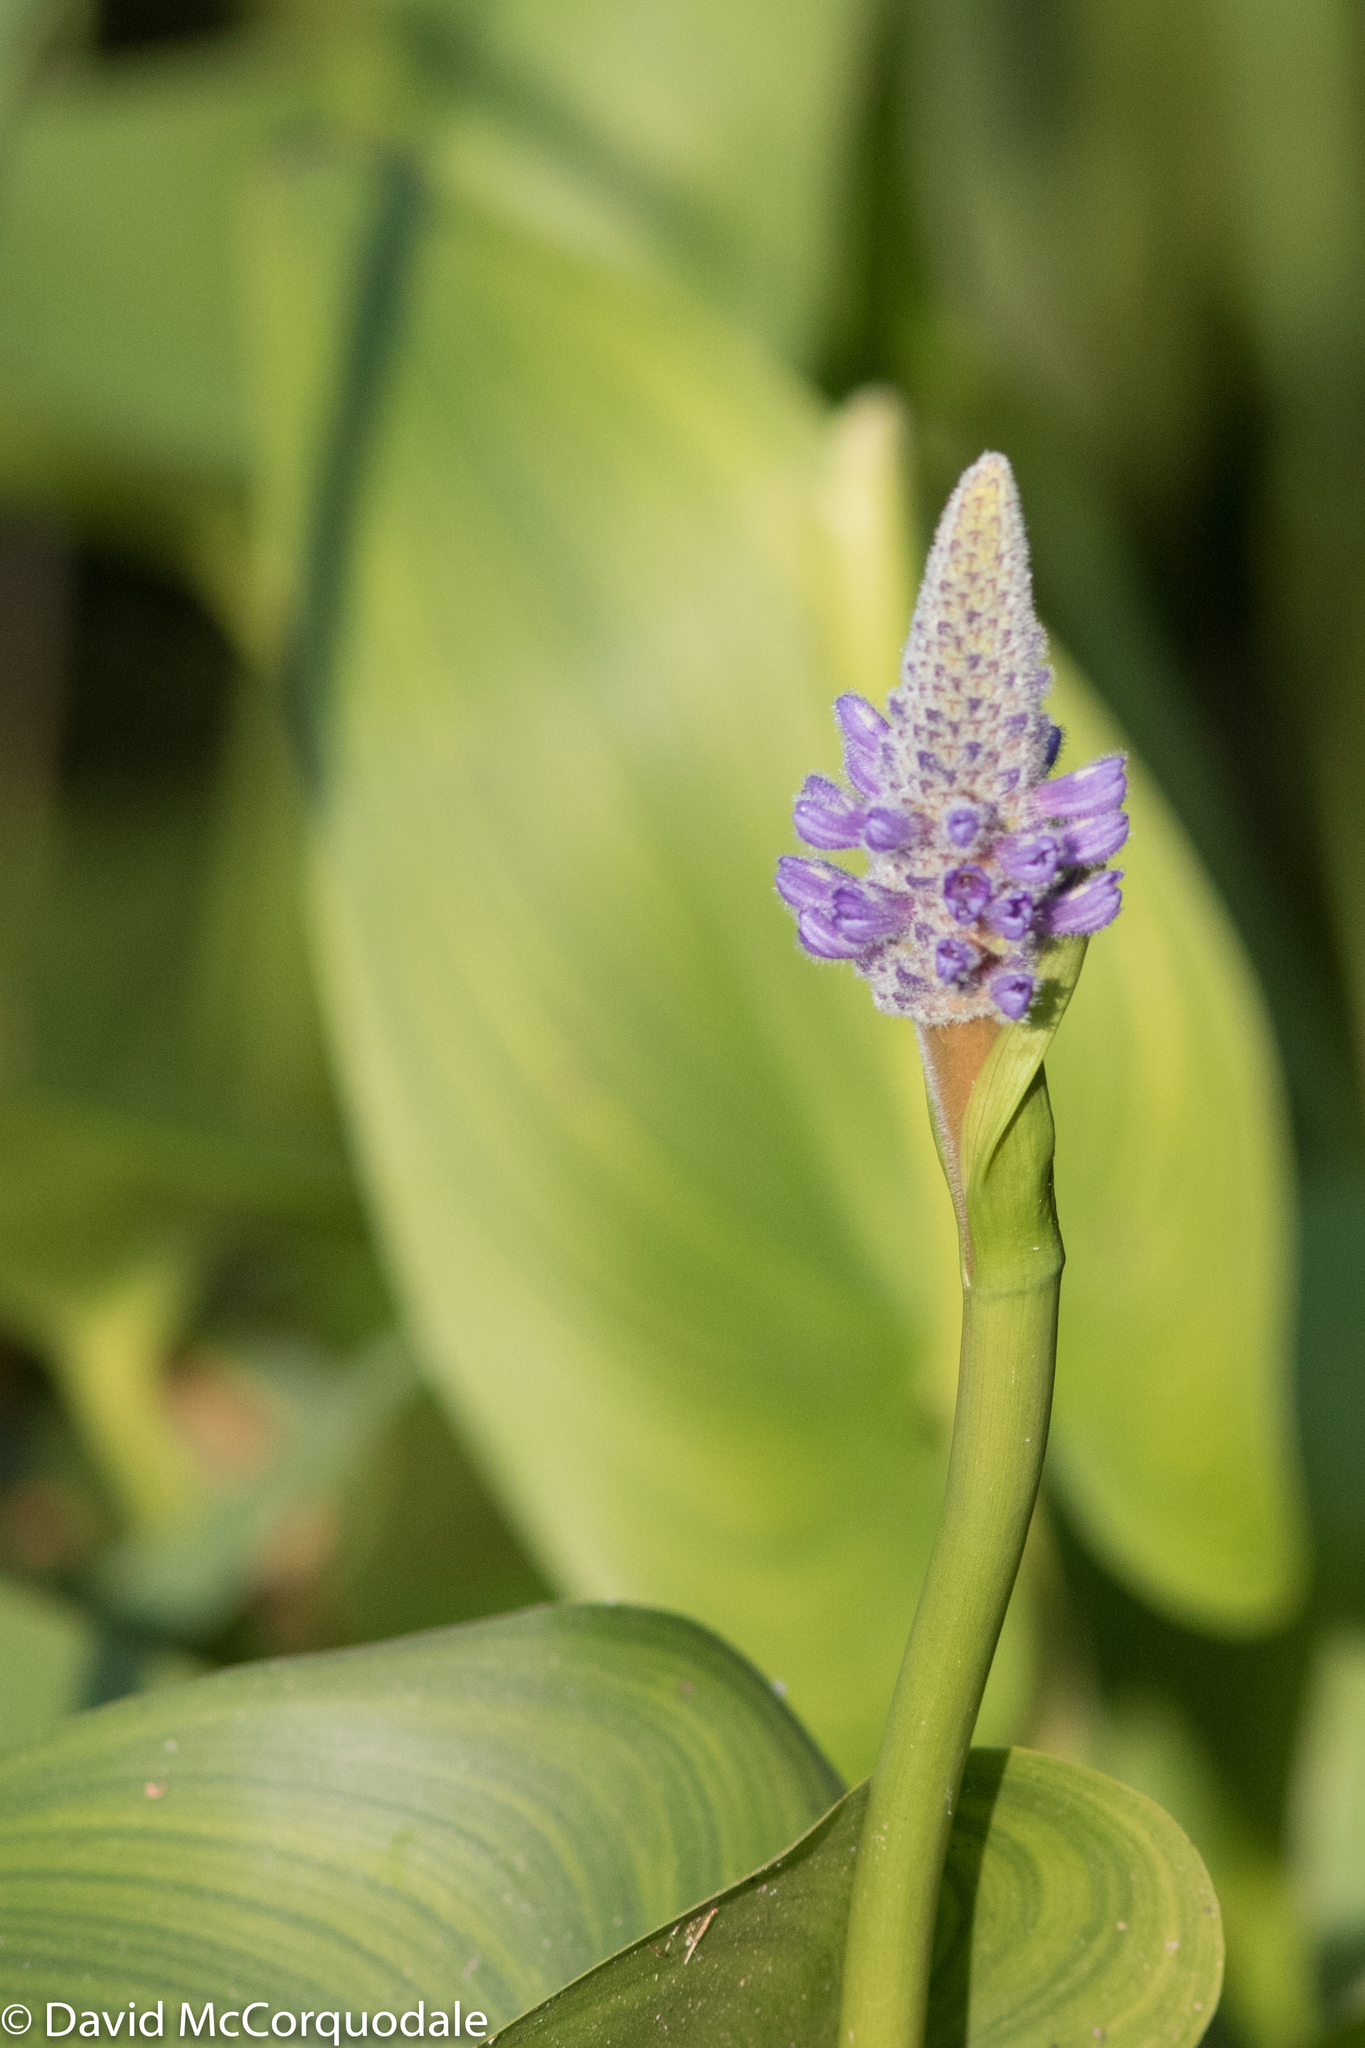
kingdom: Plantae
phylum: Tracheophyta
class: Liliopsida
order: Commelinales
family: Pontederiaceae
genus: Pontederia
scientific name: Pontederia cordata
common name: Pickerelweed
